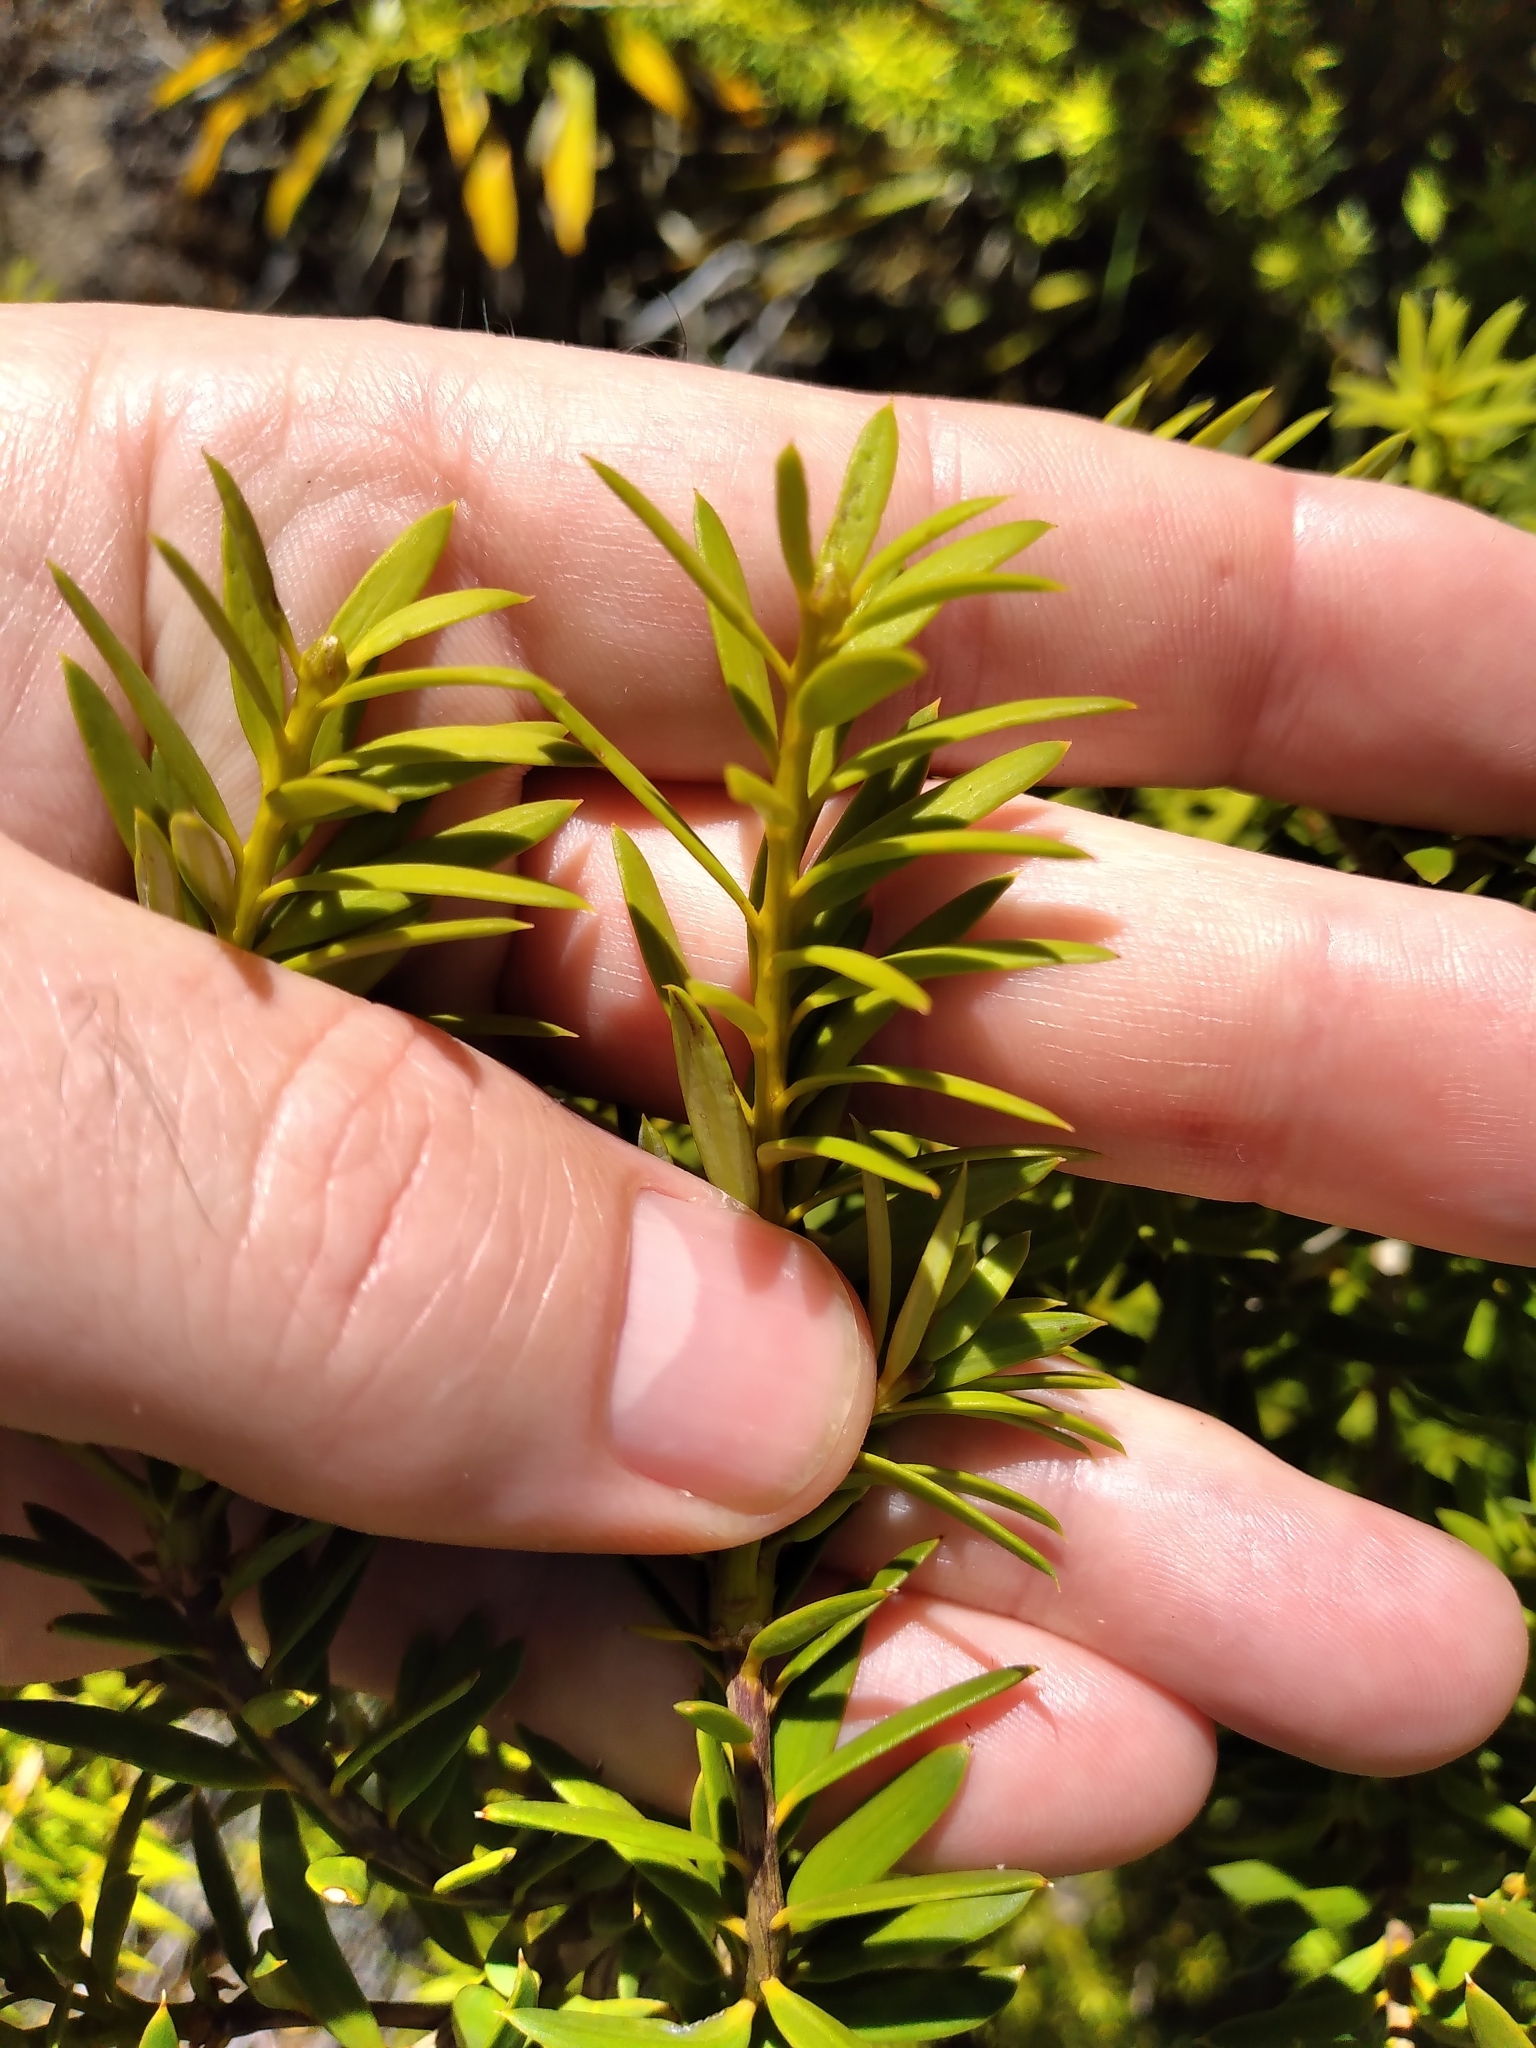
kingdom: Plantae
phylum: Tracheophyta
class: Pinopsida
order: Pinales
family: Podocarpaceae
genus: Podocarpus
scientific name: Podocarpus laetus
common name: Hall's totara
